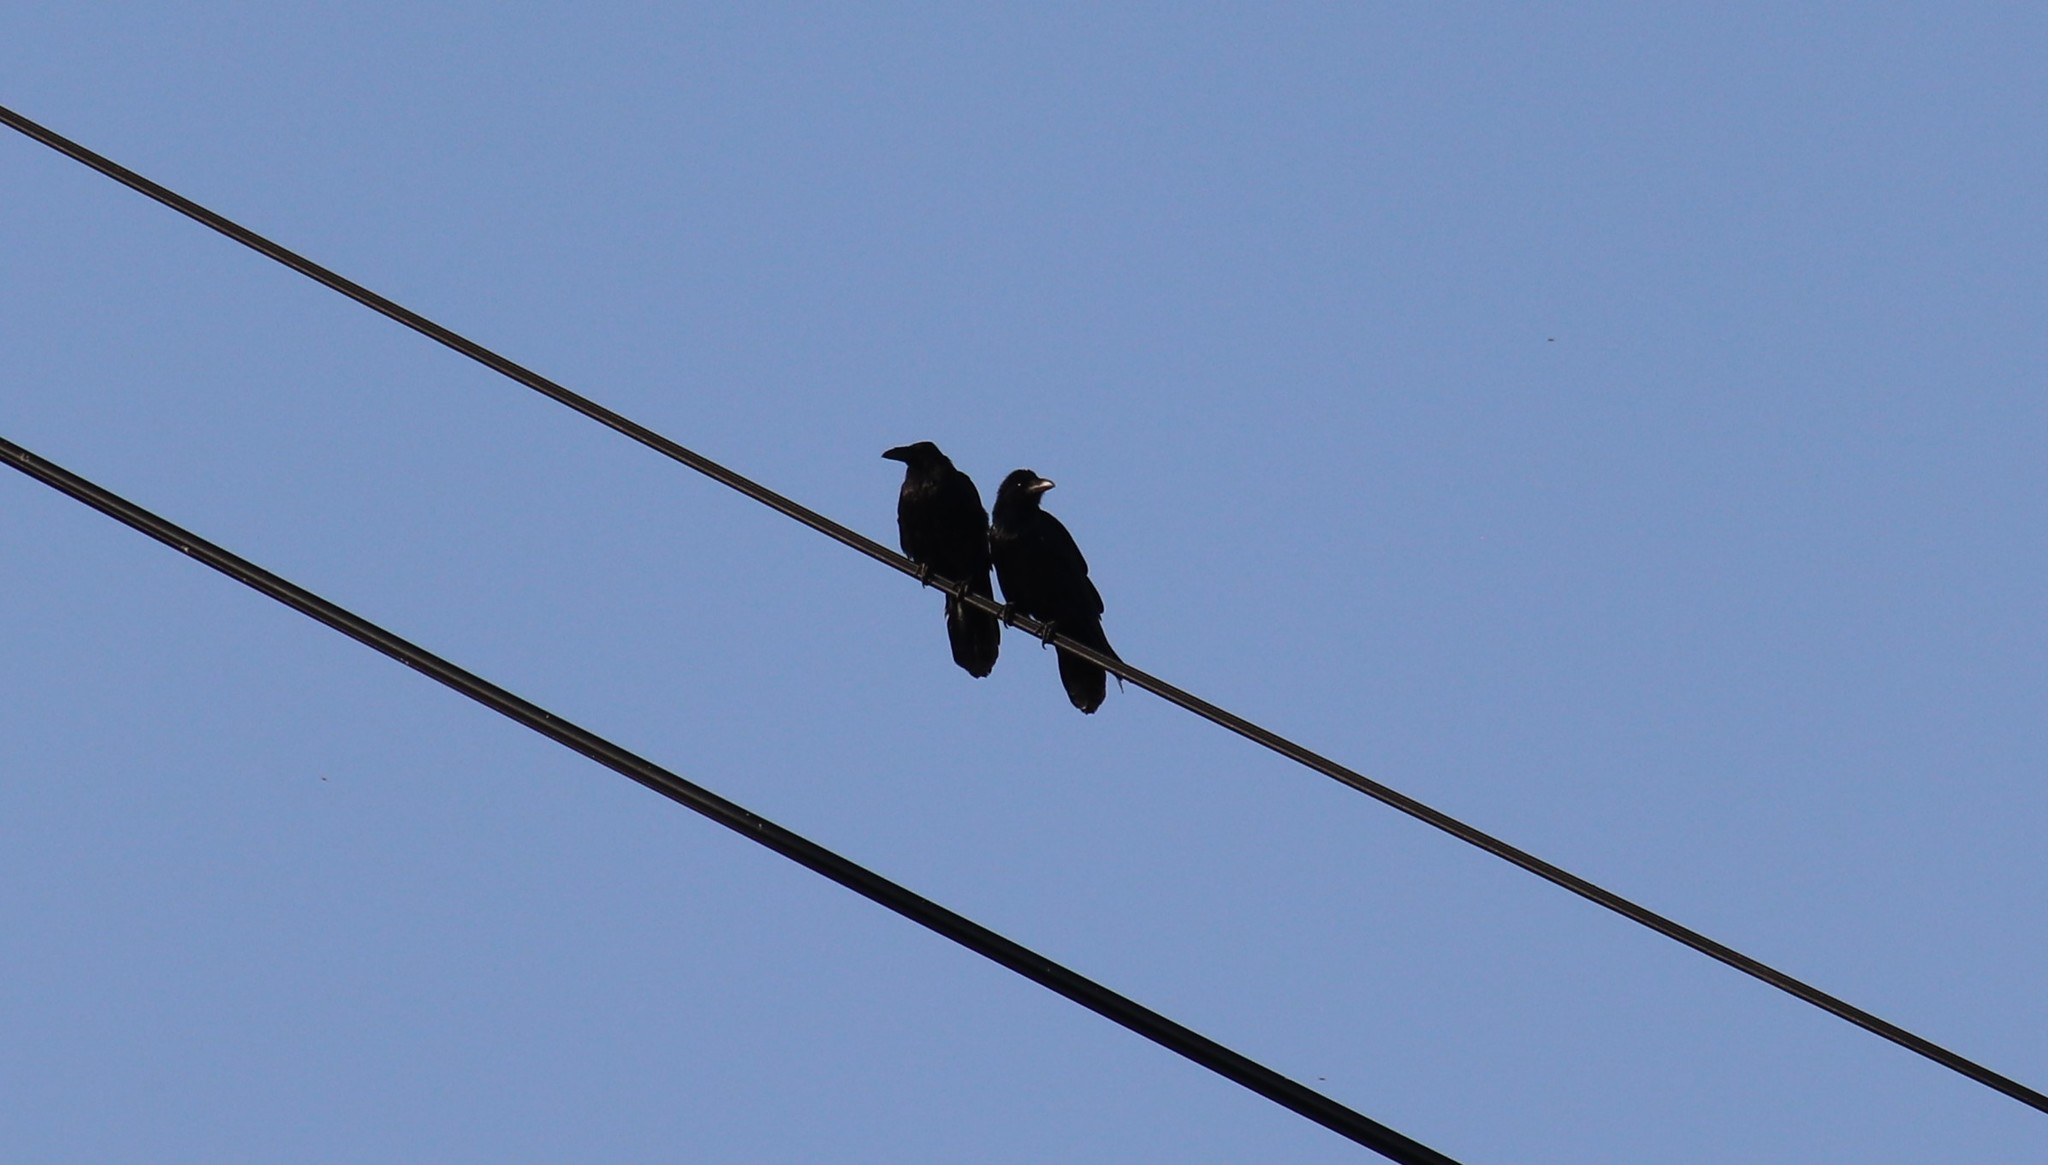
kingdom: Animalia
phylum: Chordata
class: Aves
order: Passeriformes
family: Corvidae
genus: Corvus
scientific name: Corvus corax
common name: Common raven
